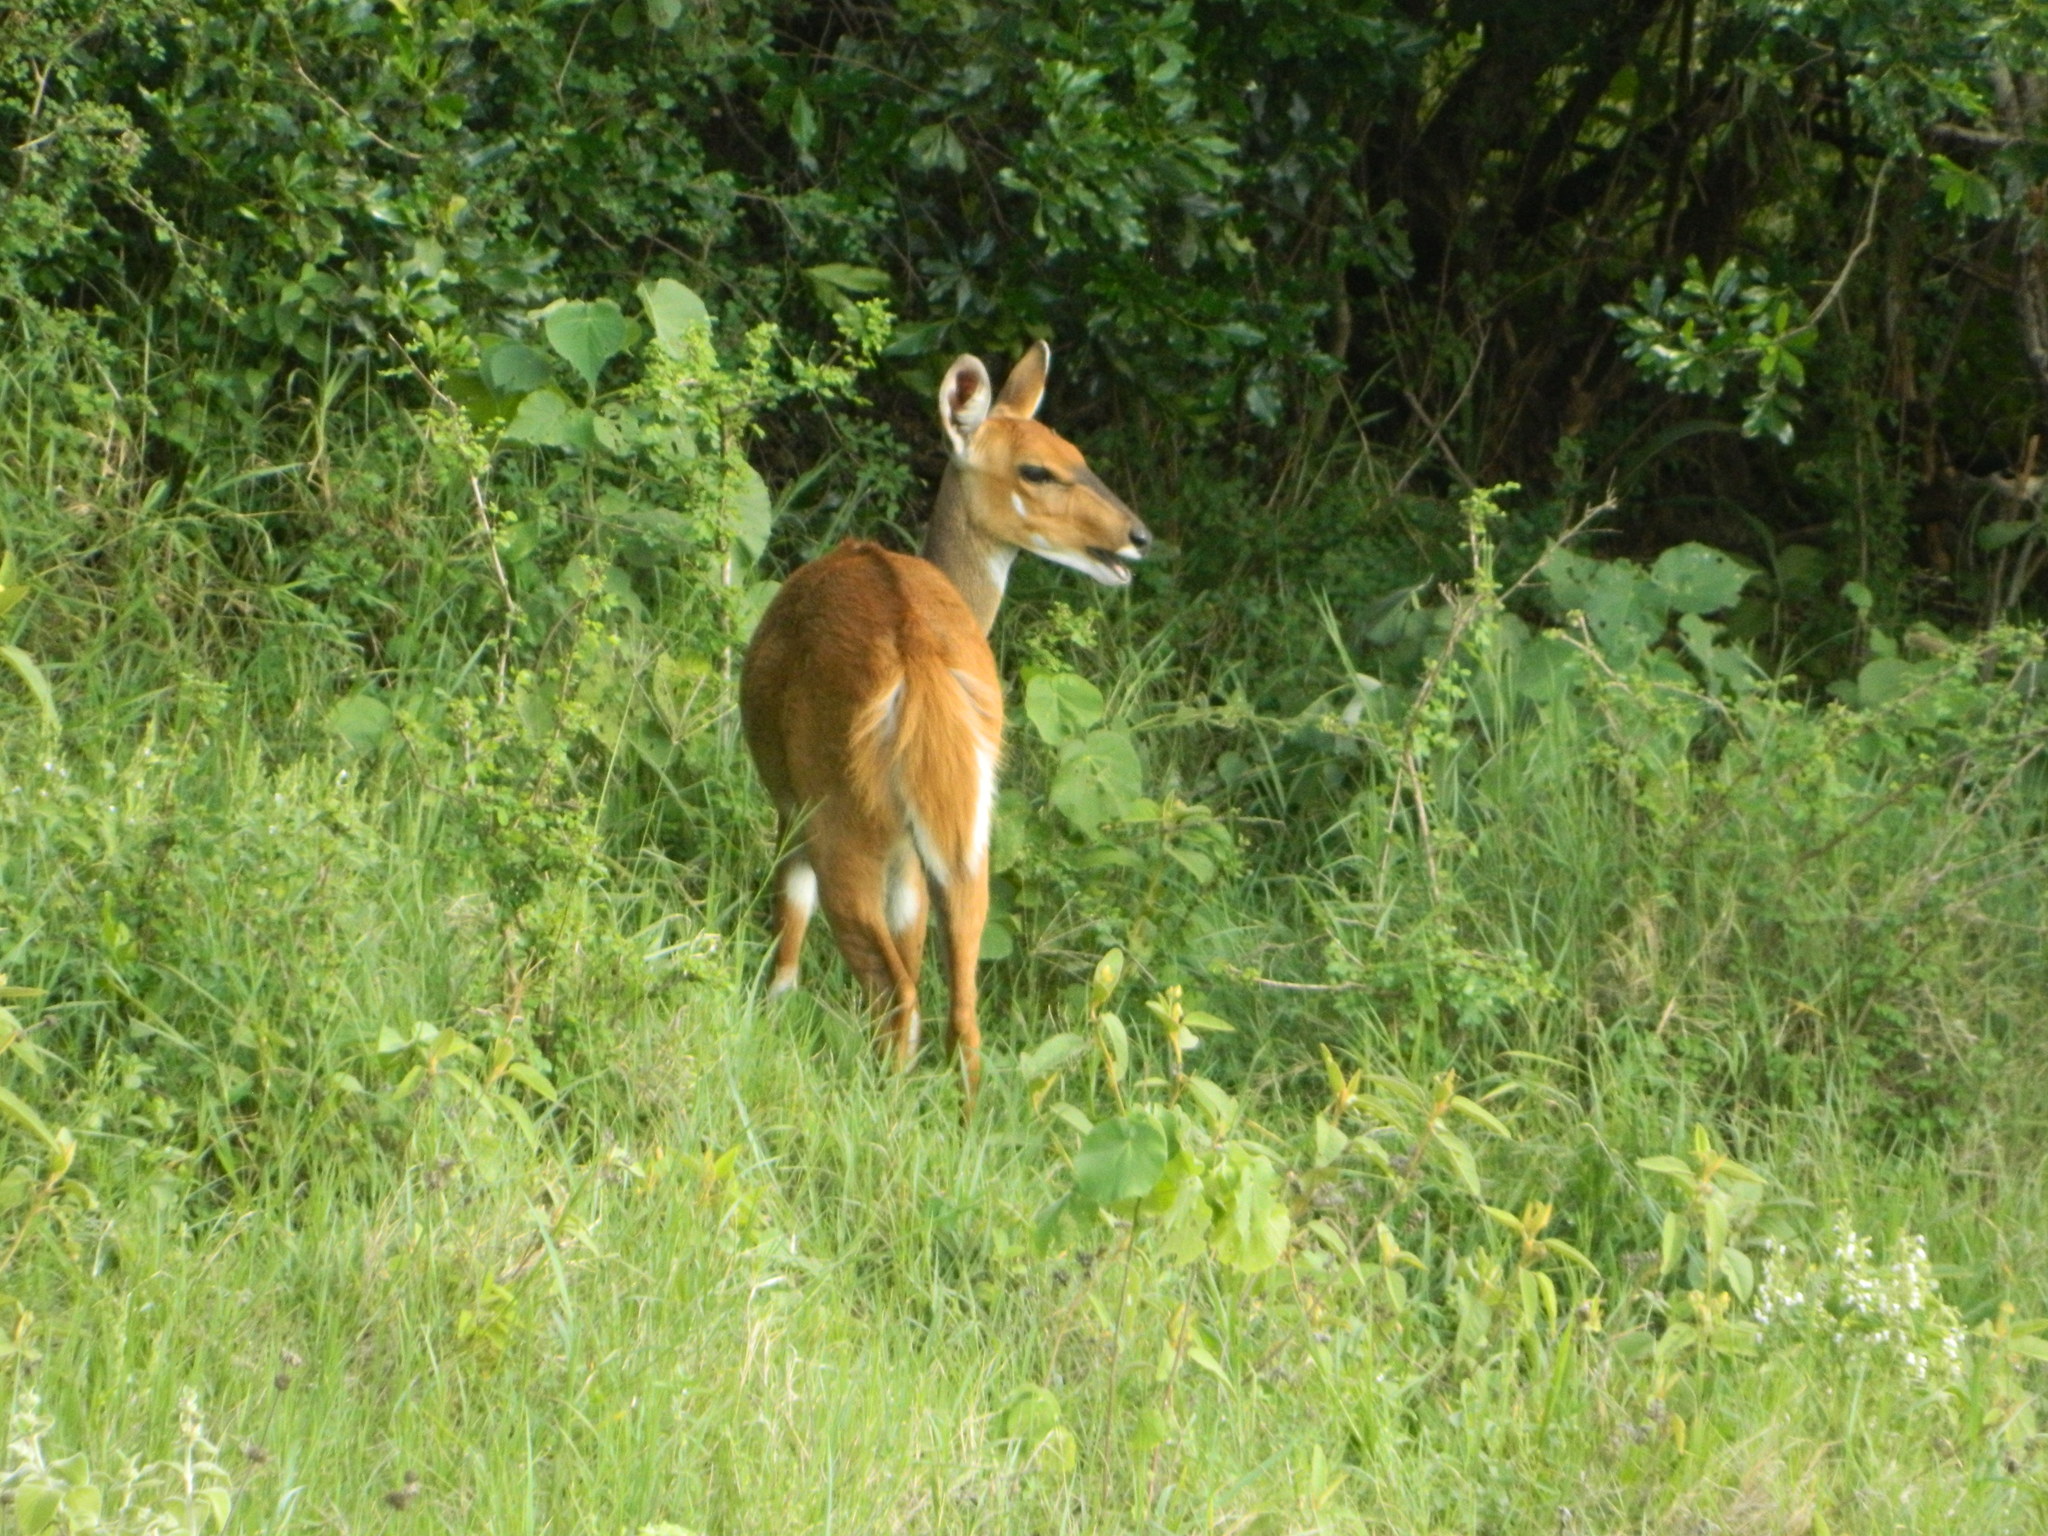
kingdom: Animalia
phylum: Chordata
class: Mammalia
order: Artiodactyla
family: Bovidae
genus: Tragelaphus
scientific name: Tragelaphus scriptus
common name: Bushbuck
